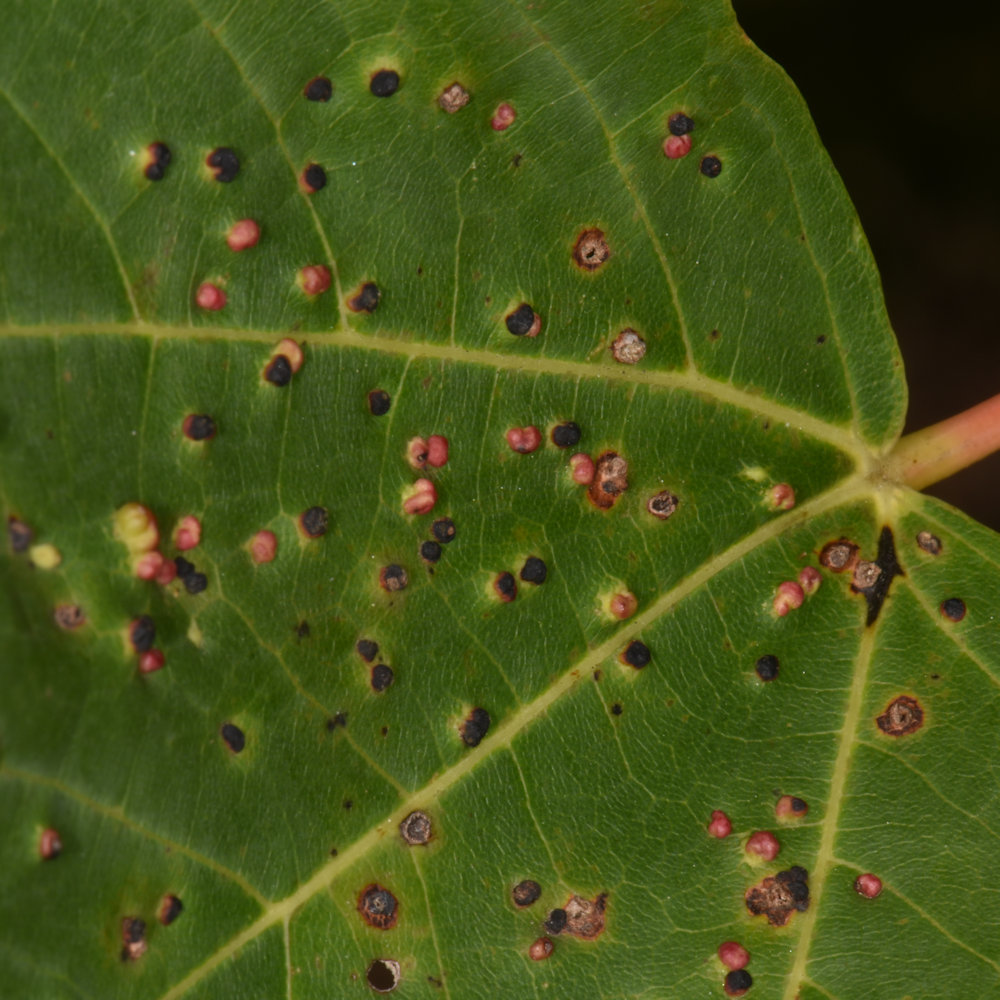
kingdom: Animalia
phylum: Arthropoda
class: Arachnida
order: Trombidiformes
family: Eriophyidae
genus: Vasates
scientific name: Vasates quadripedes
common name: Maple bladder gall mite
